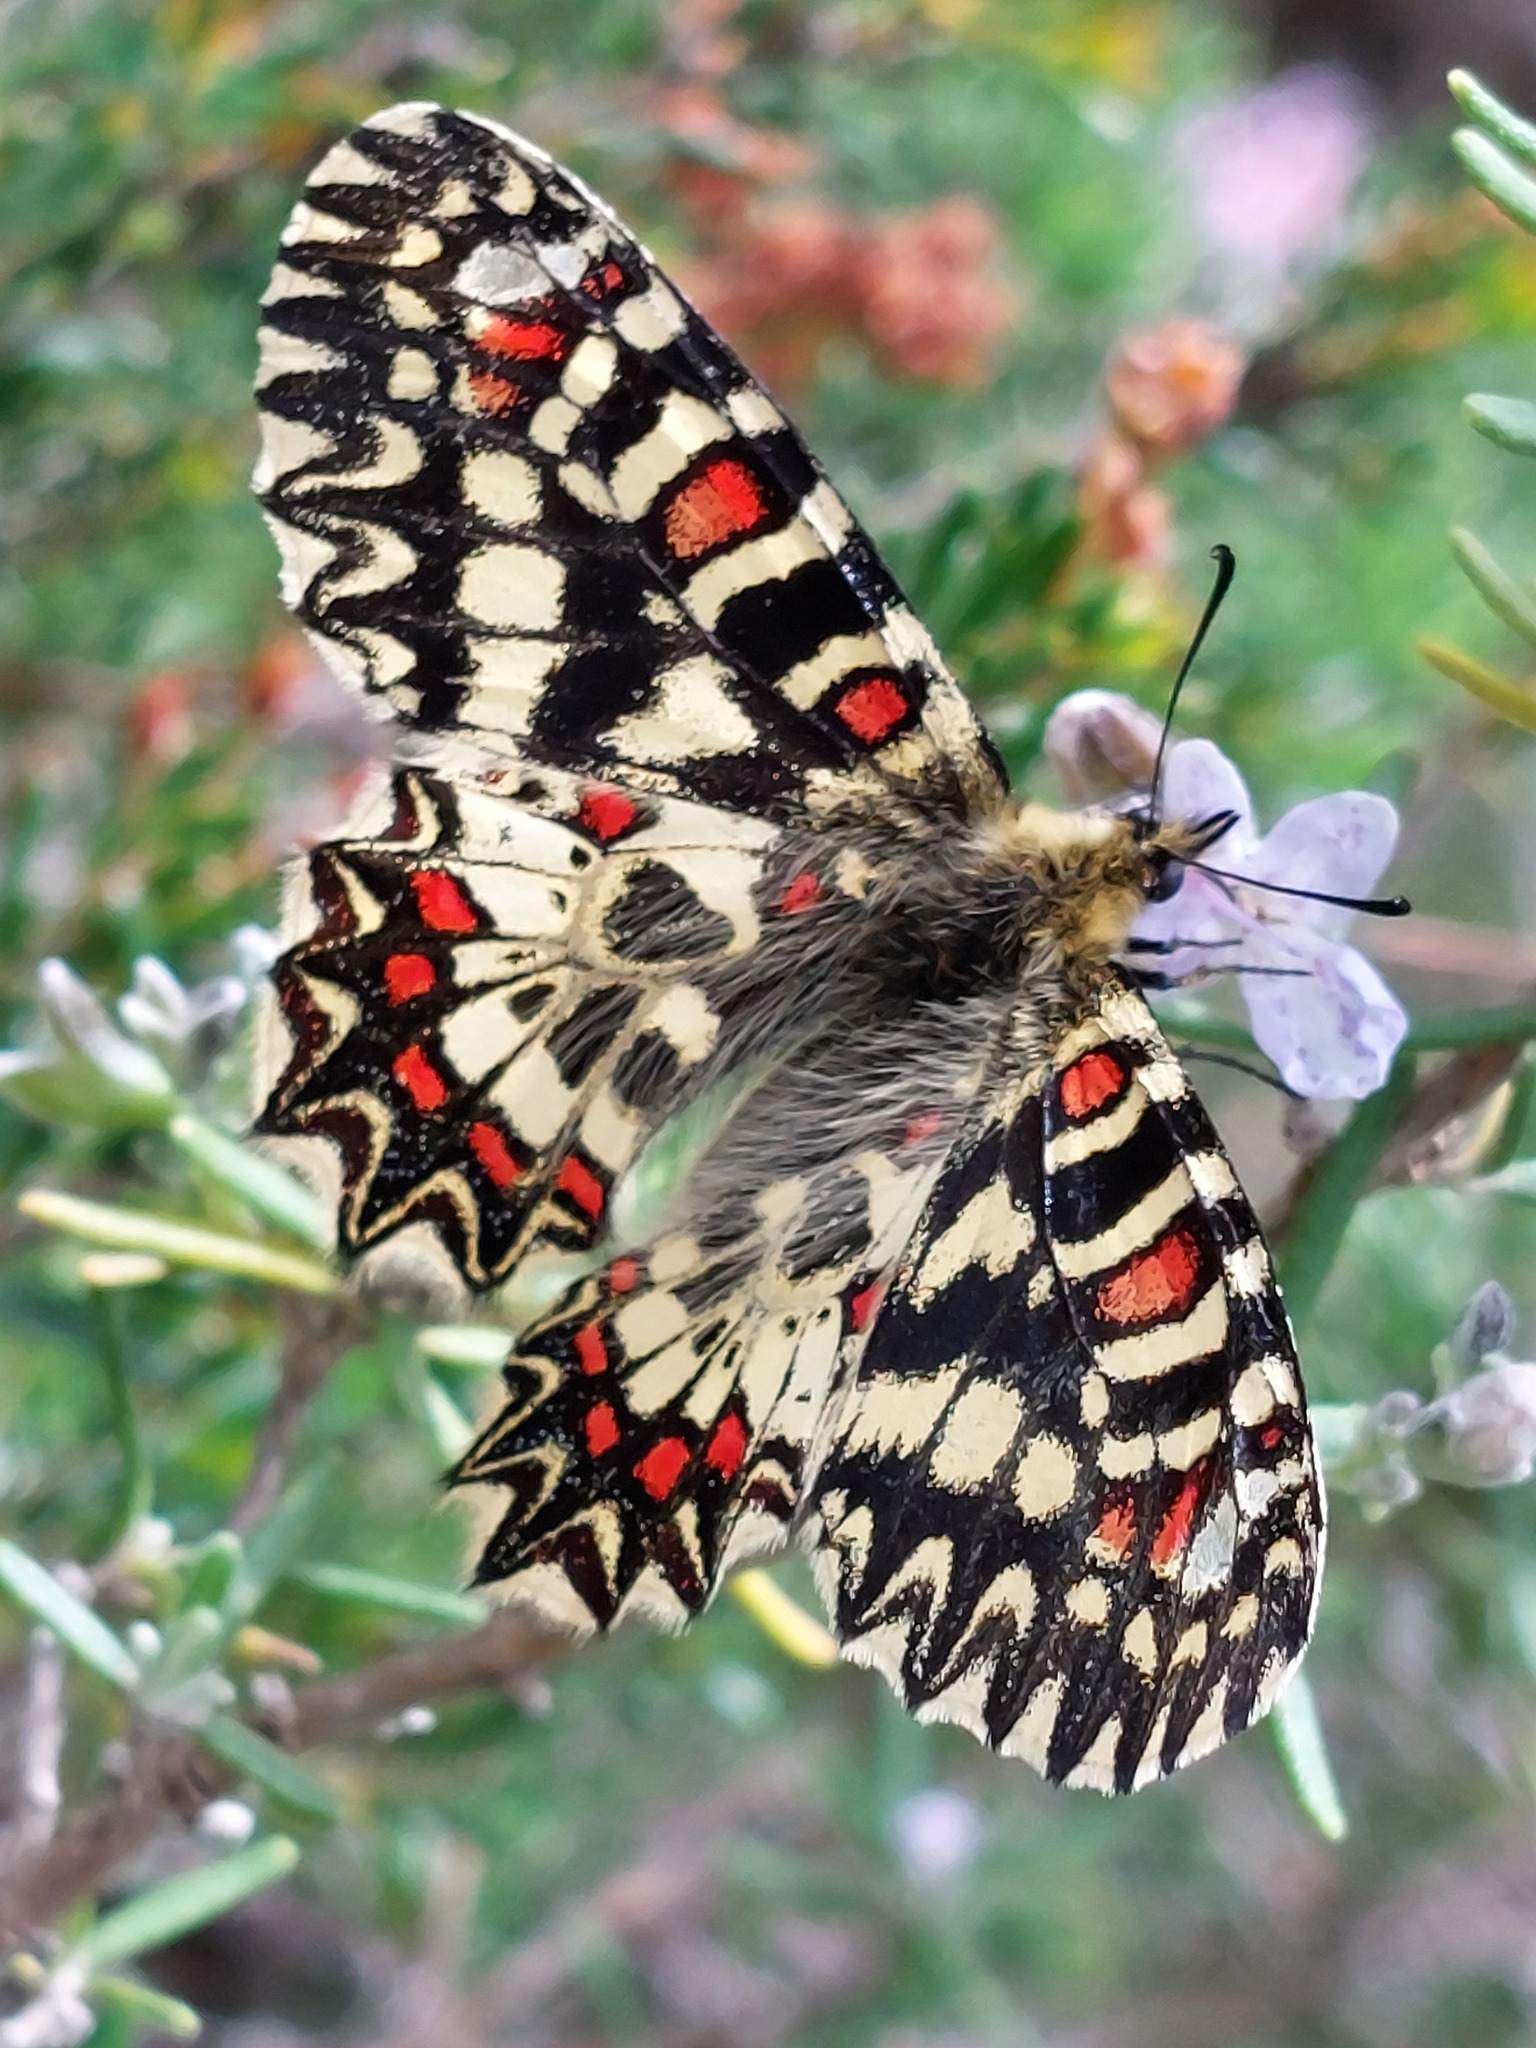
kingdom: Animalia
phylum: Arthropoda
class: Insecta
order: Lepidoptera
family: Papilionidae
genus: Zerynthia
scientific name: Zerynthia rumina
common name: Spanish festoon
